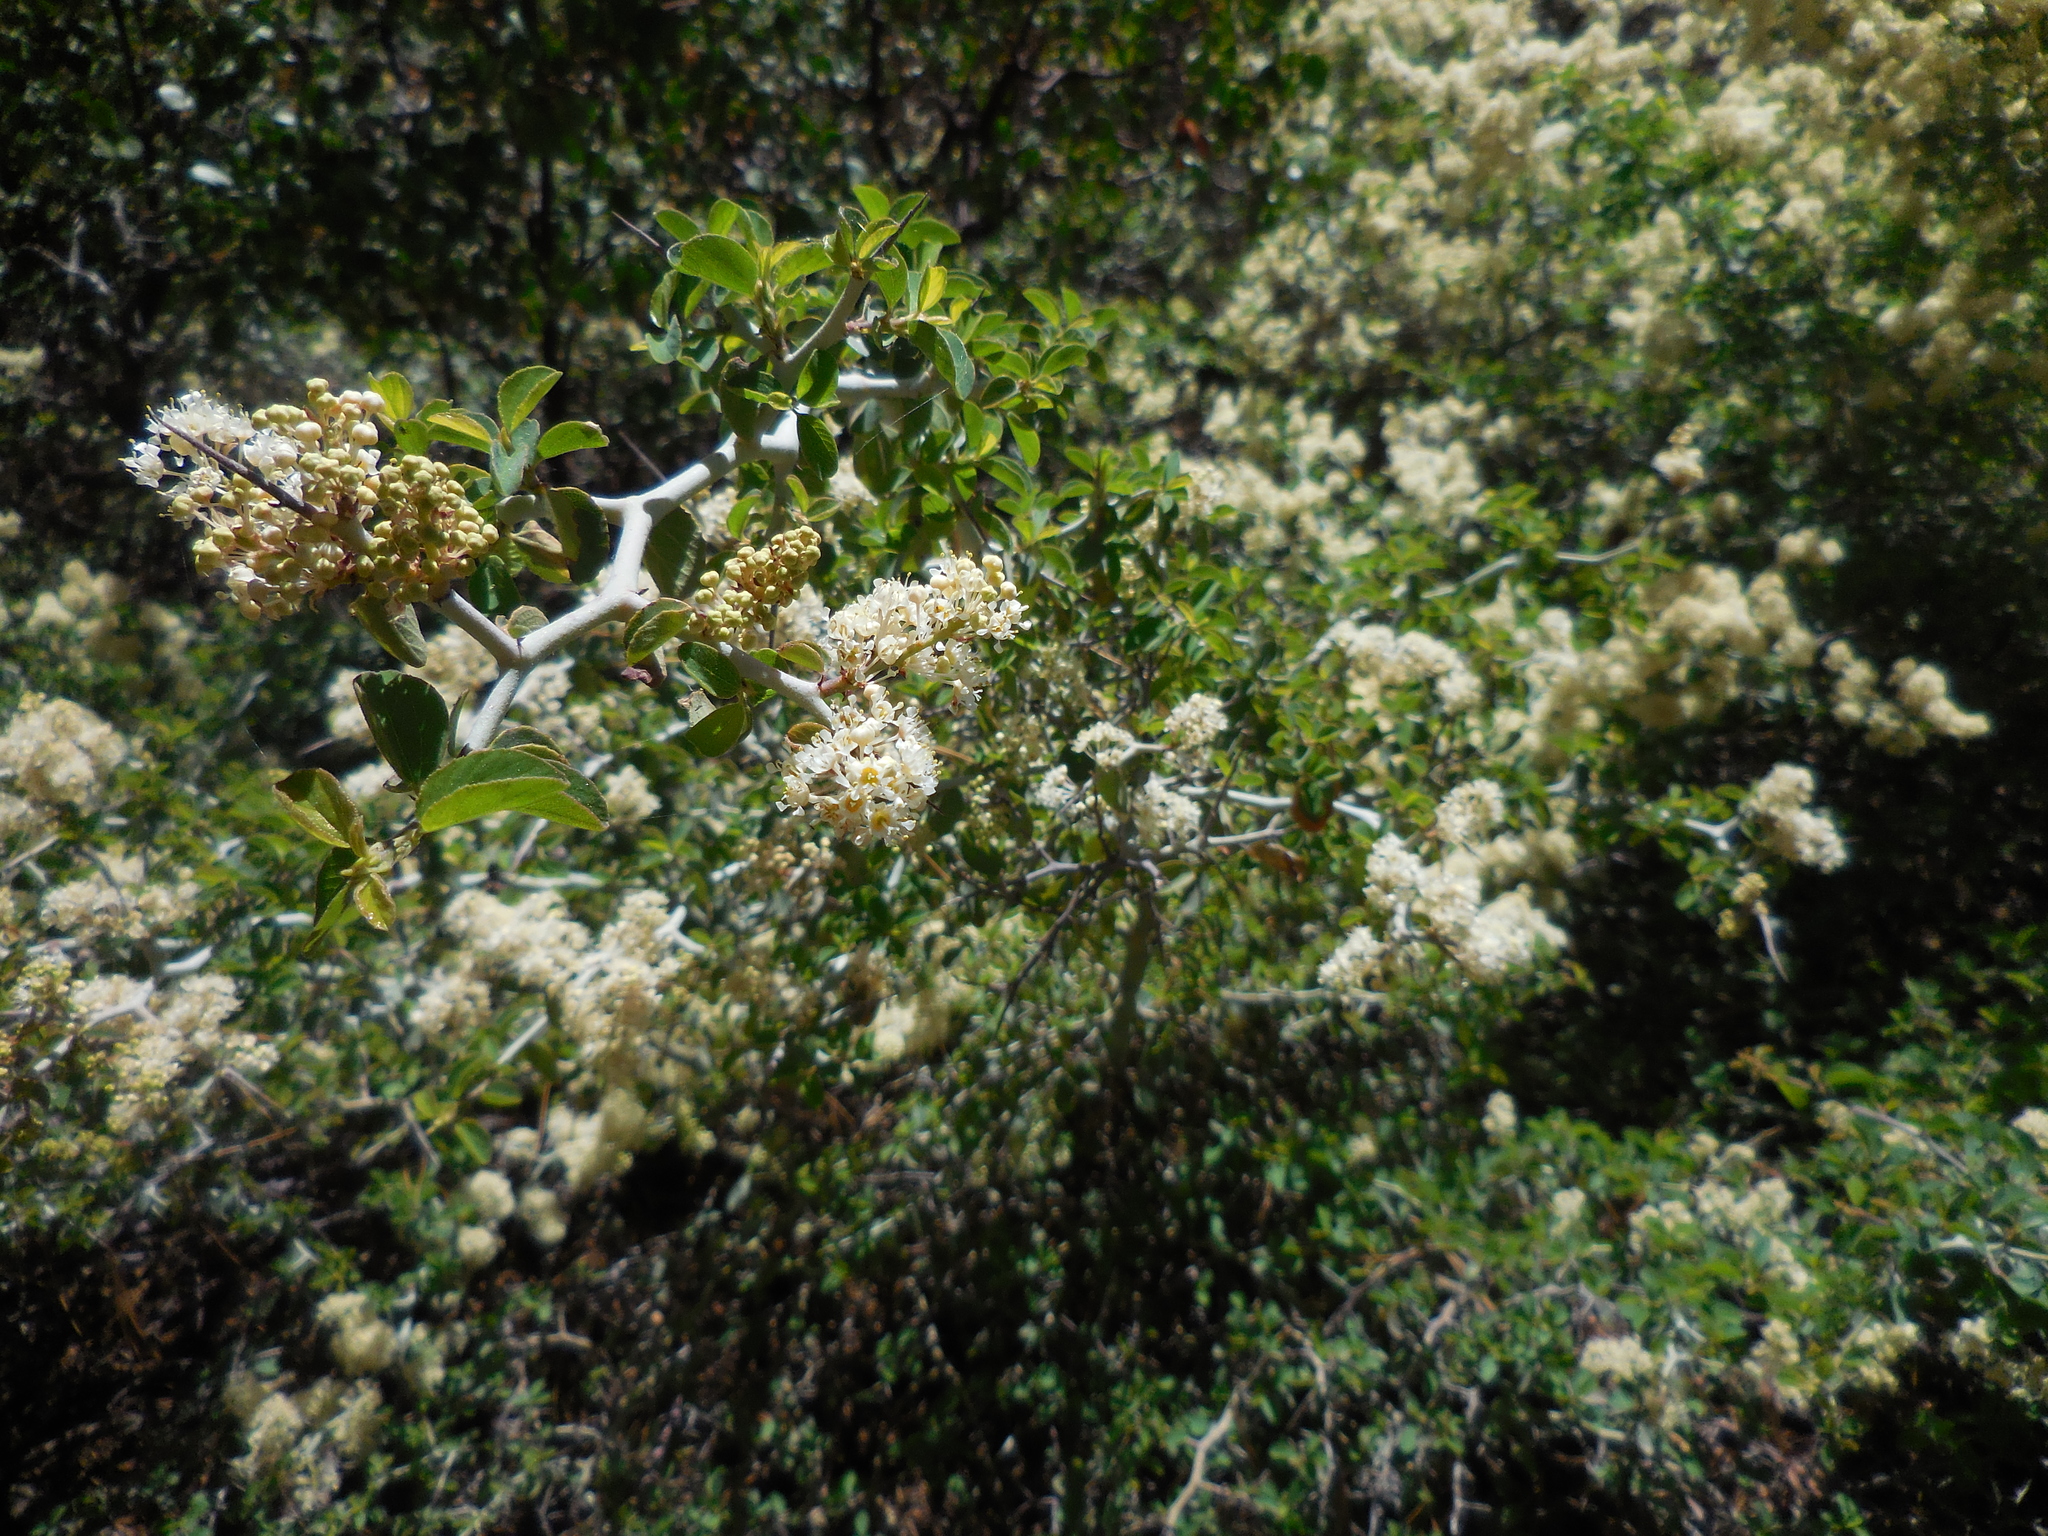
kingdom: Plantae
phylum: Tracheophyta
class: Magnoliopsida
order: Rosales
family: Rhamnaceae
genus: Ceanothus
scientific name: Ceanothus cordulatus
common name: Mountain whitethorn
